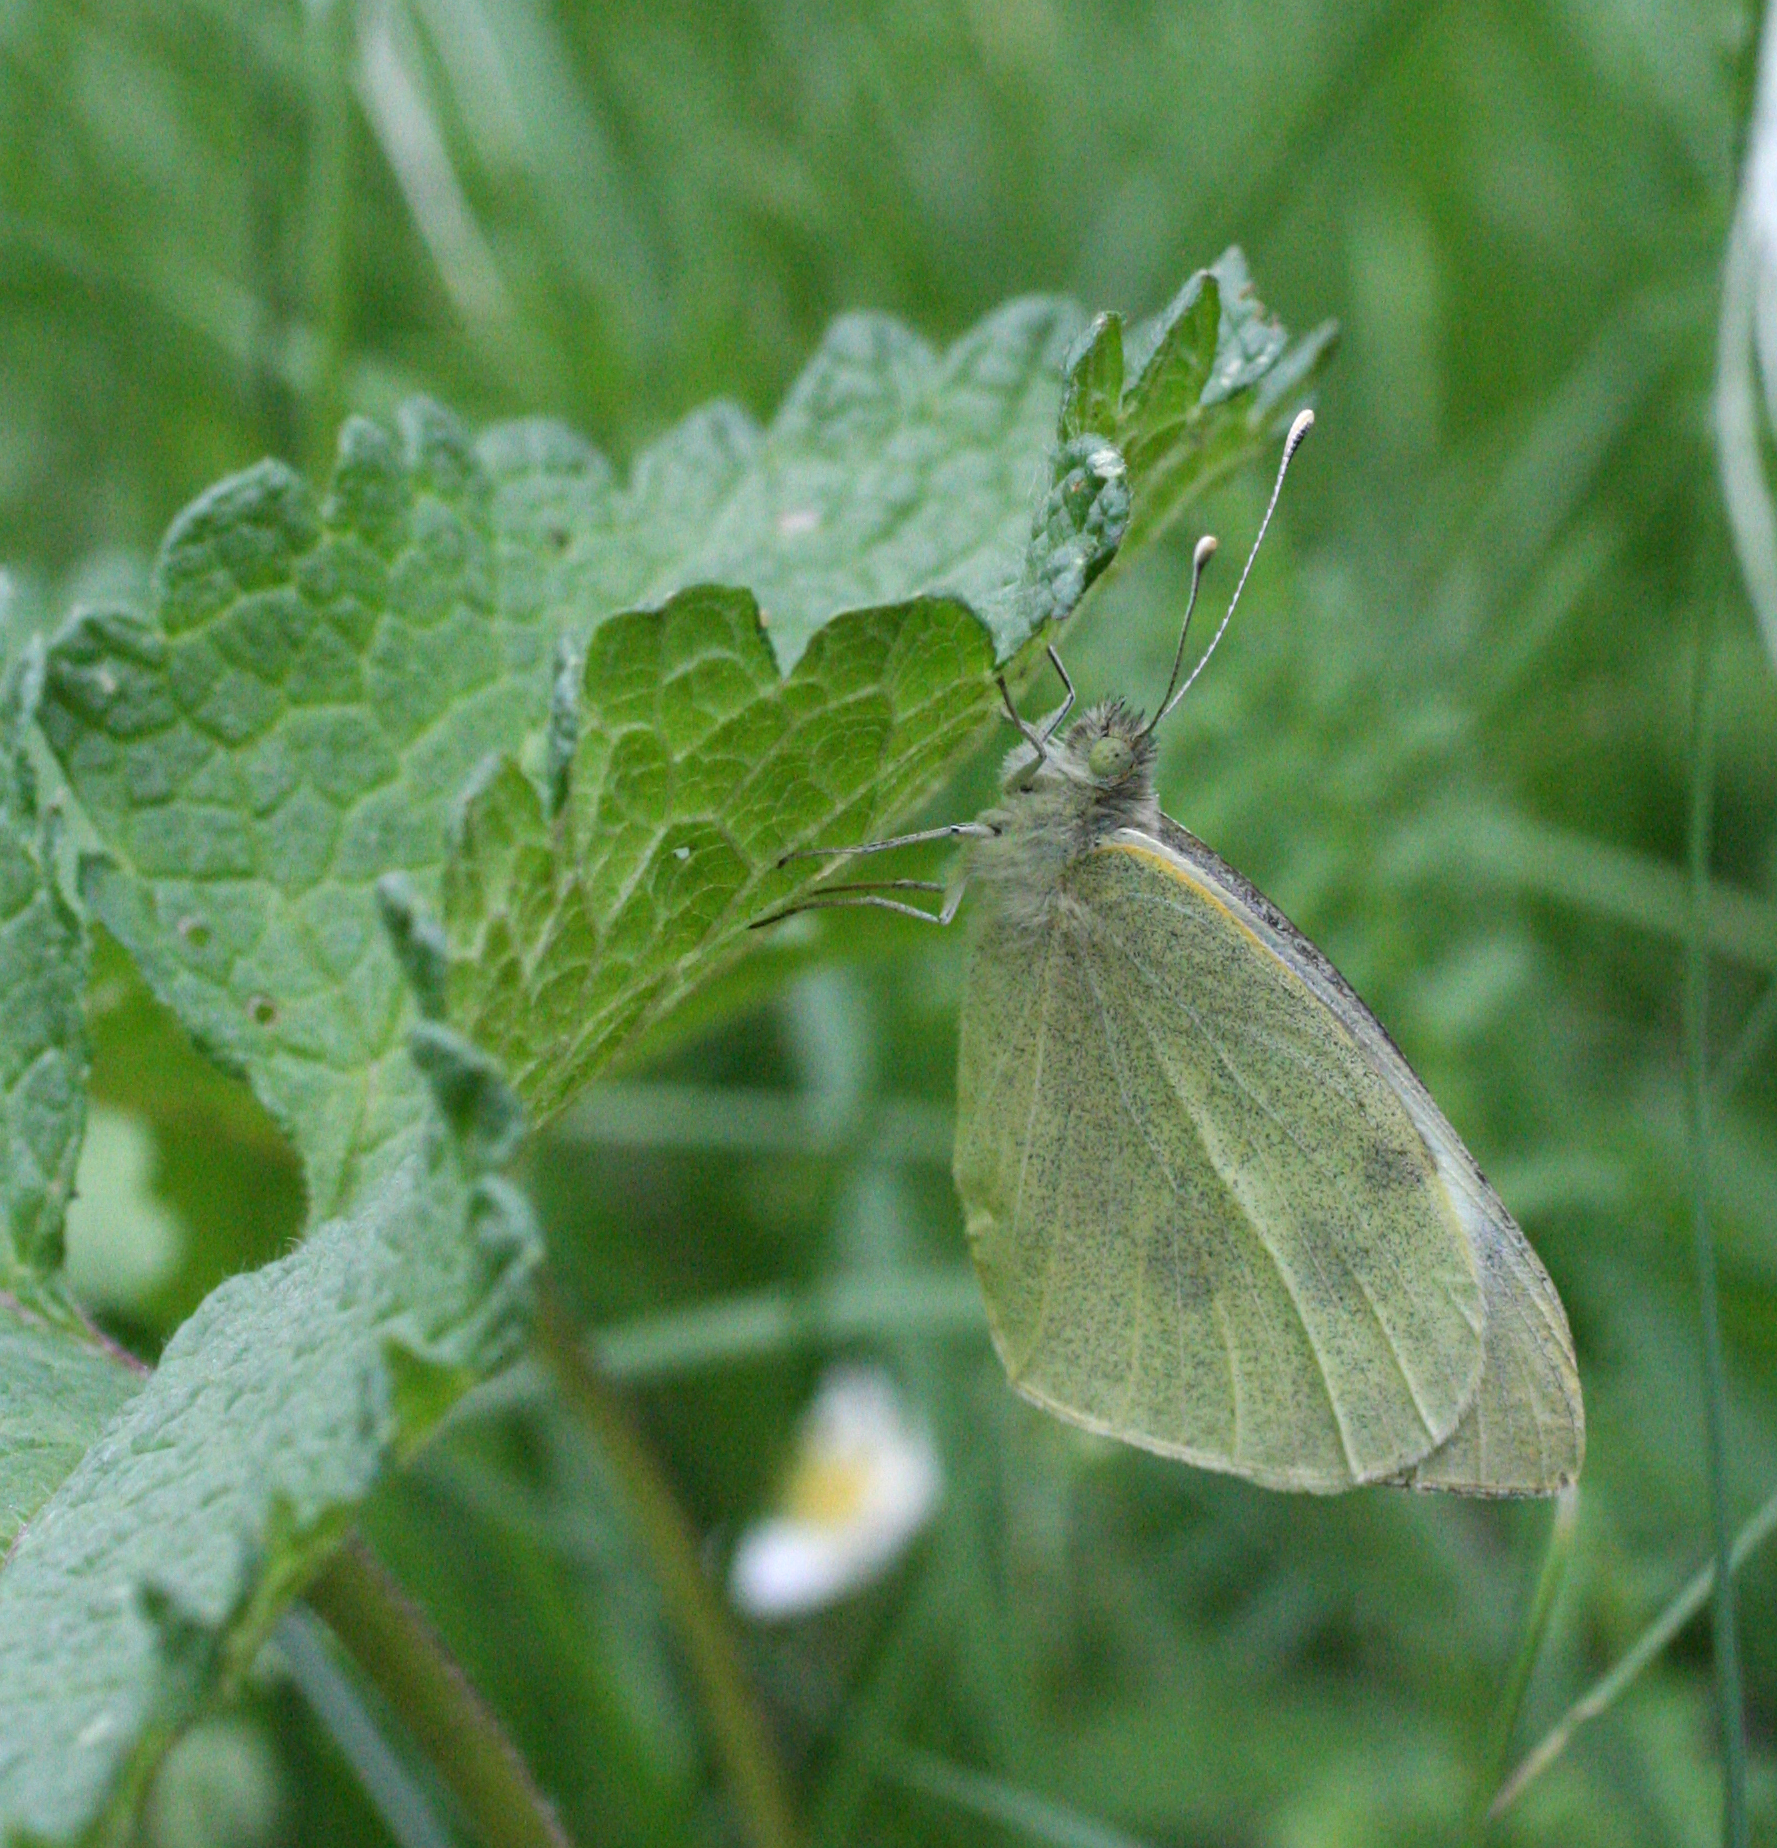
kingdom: Animalia
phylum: Arthropoda
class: Insecta
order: Lepidoptera
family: Pieridae
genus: Pieris
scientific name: Pieris brassicae
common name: Large white
